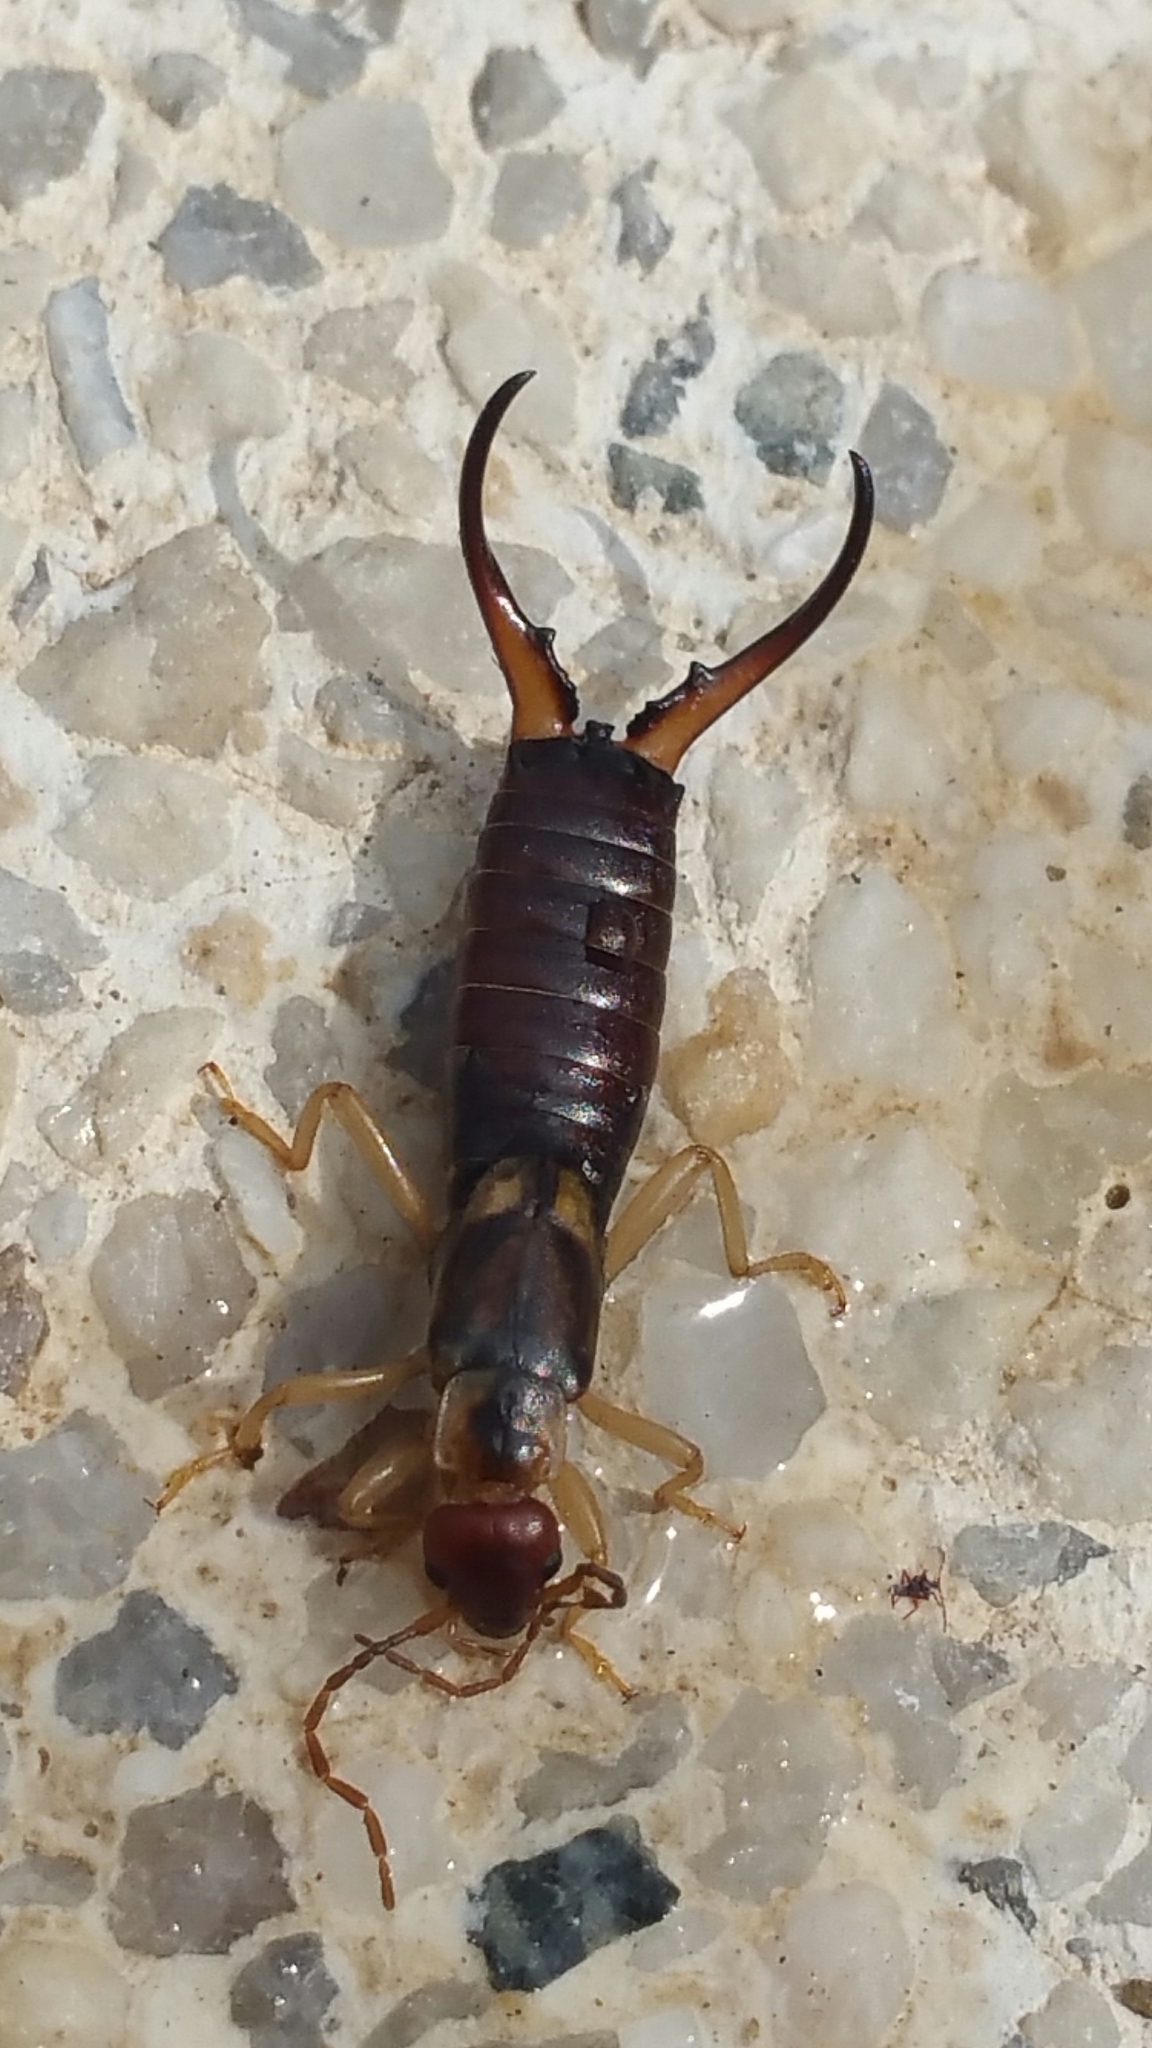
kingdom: Animalia
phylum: Arthropoda
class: Insecta
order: Dermaptera
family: Forficulidae
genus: Forficula
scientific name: Forficula
